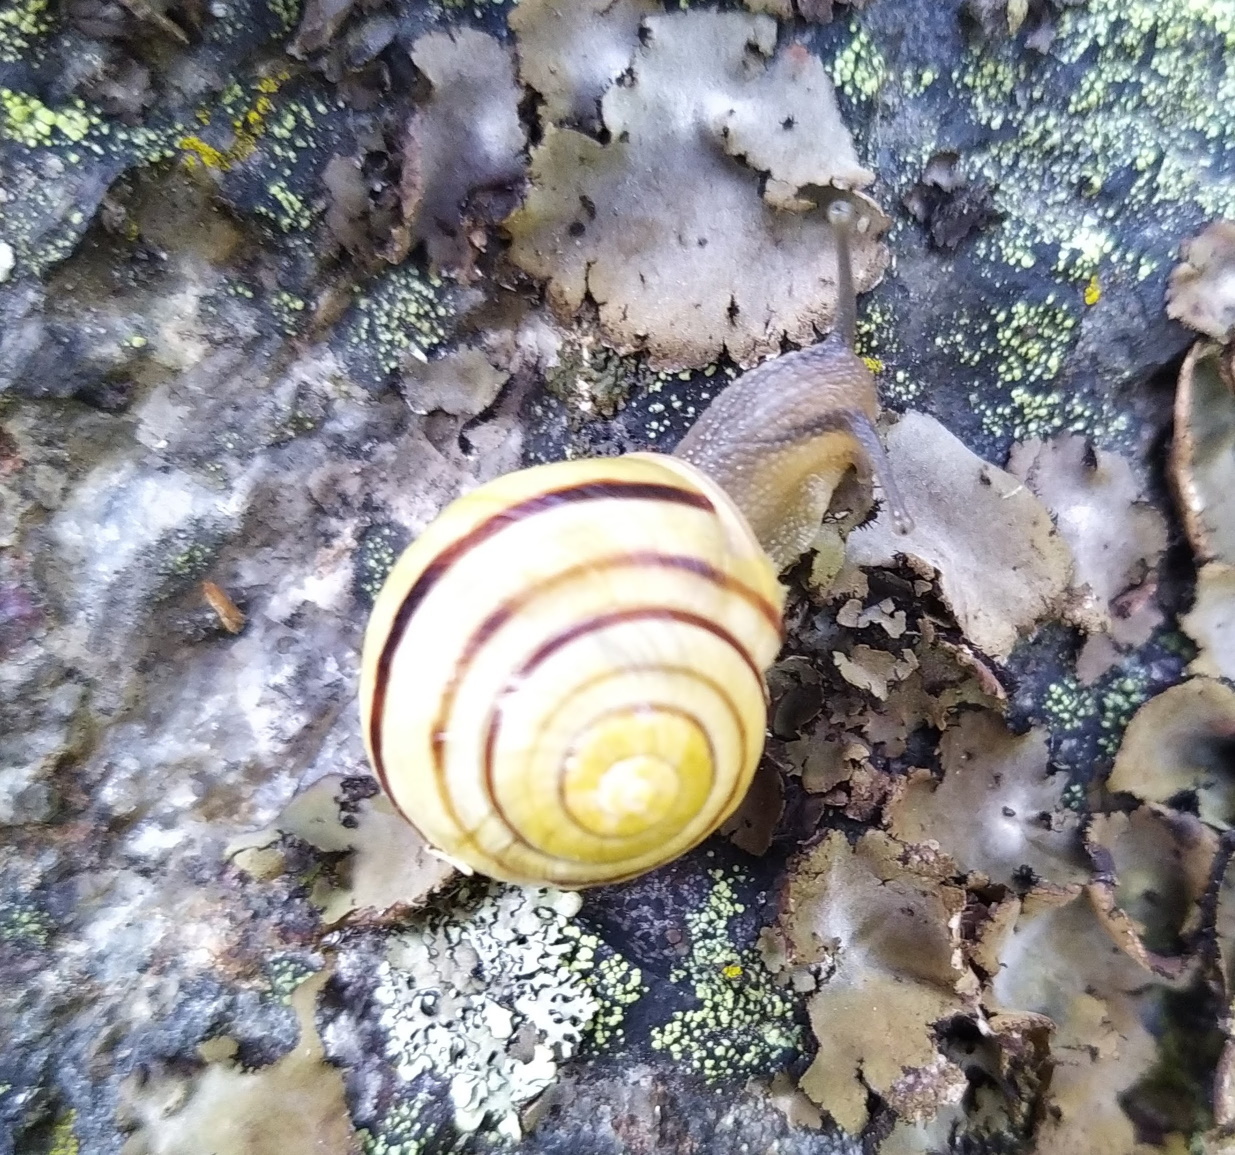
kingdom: Animalia
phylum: Mollusca
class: Gastropoda
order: Stylommatophora
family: Helicidae
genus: Cepaea
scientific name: Cepaea hortensis
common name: White-lip gardensnail
